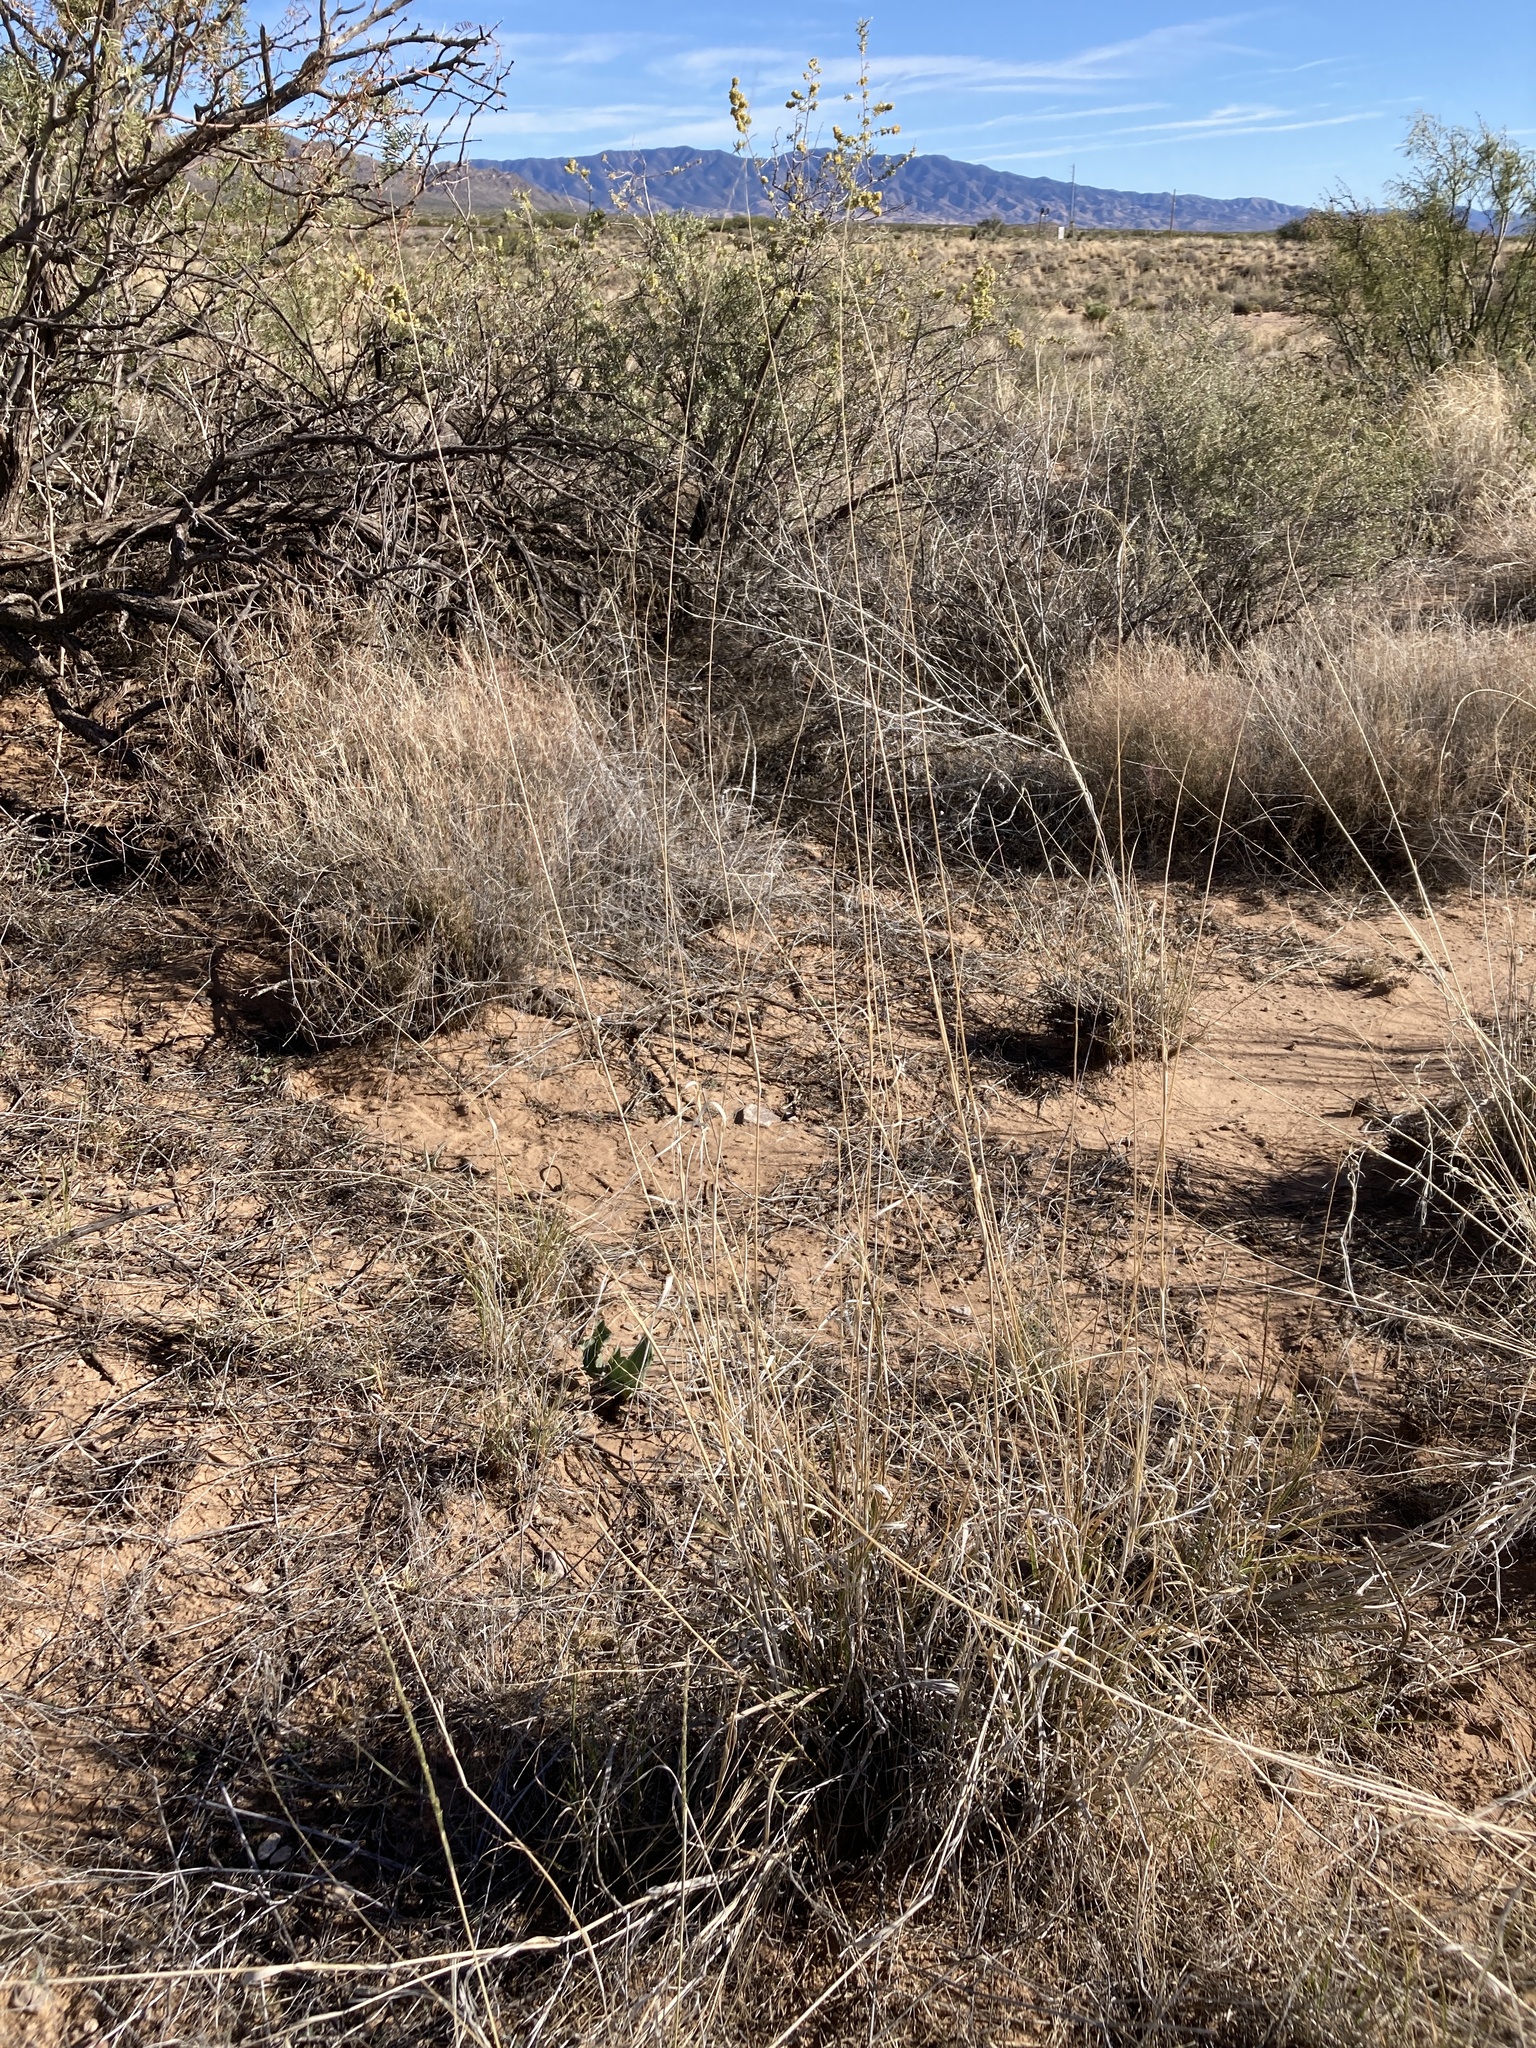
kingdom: Plantae
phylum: Tracheophyta
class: Liliopsida
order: Poales
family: Poaceae
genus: Sporobolus
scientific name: Sporobolus contractus
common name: Spike dropseed
